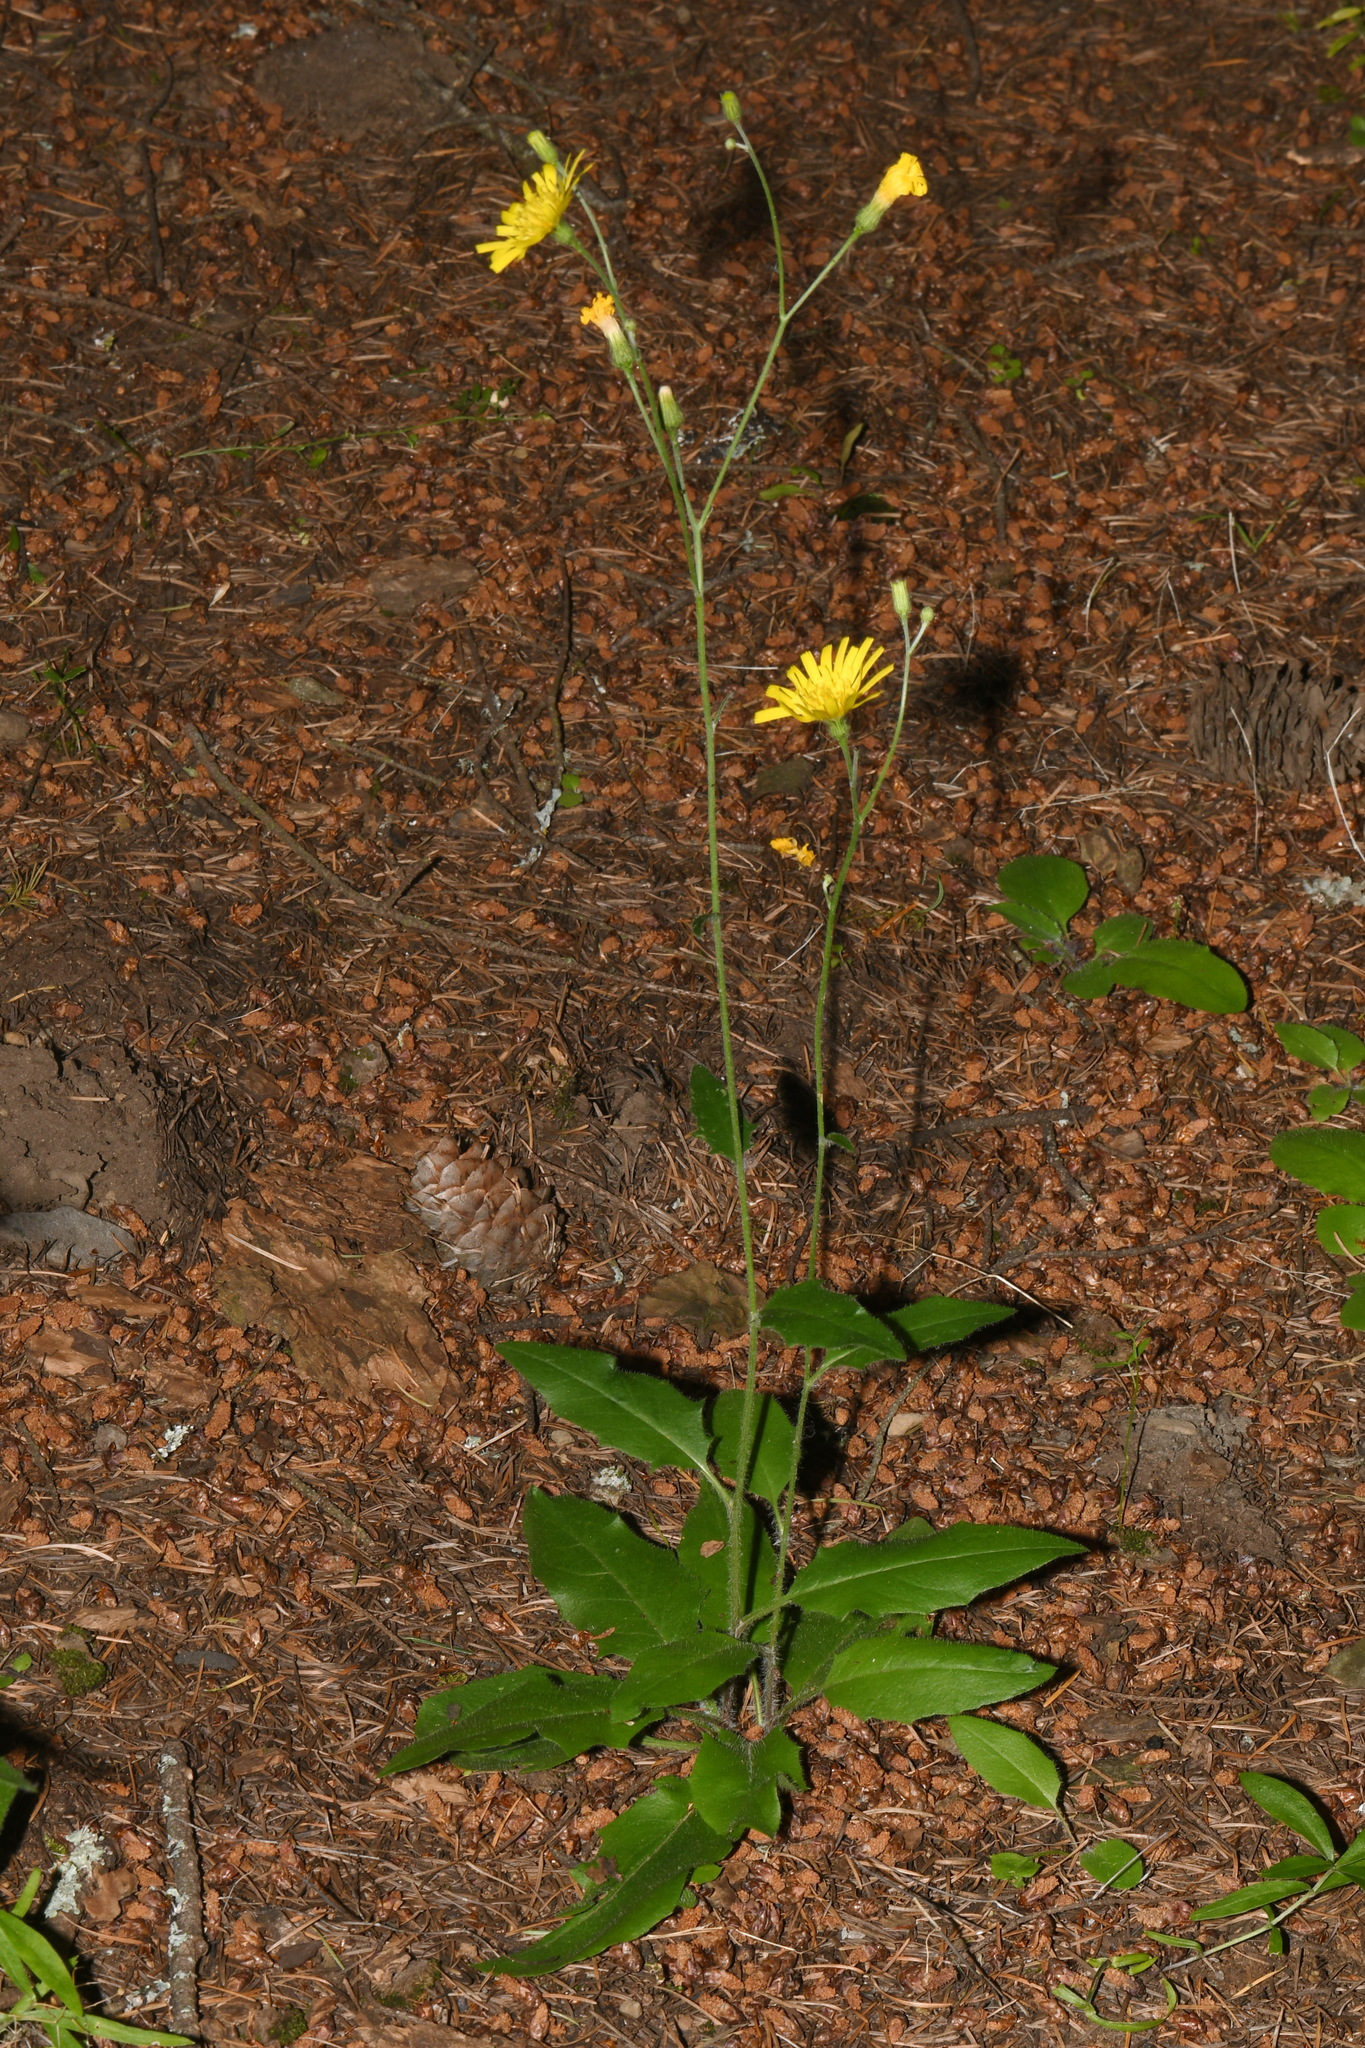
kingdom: Plantae
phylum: Tracheophyta
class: Magnoliopsida
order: Asterales
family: Asteraceae
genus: Hieracium
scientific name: Hieracium lachenalii
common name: Common hawkweed
